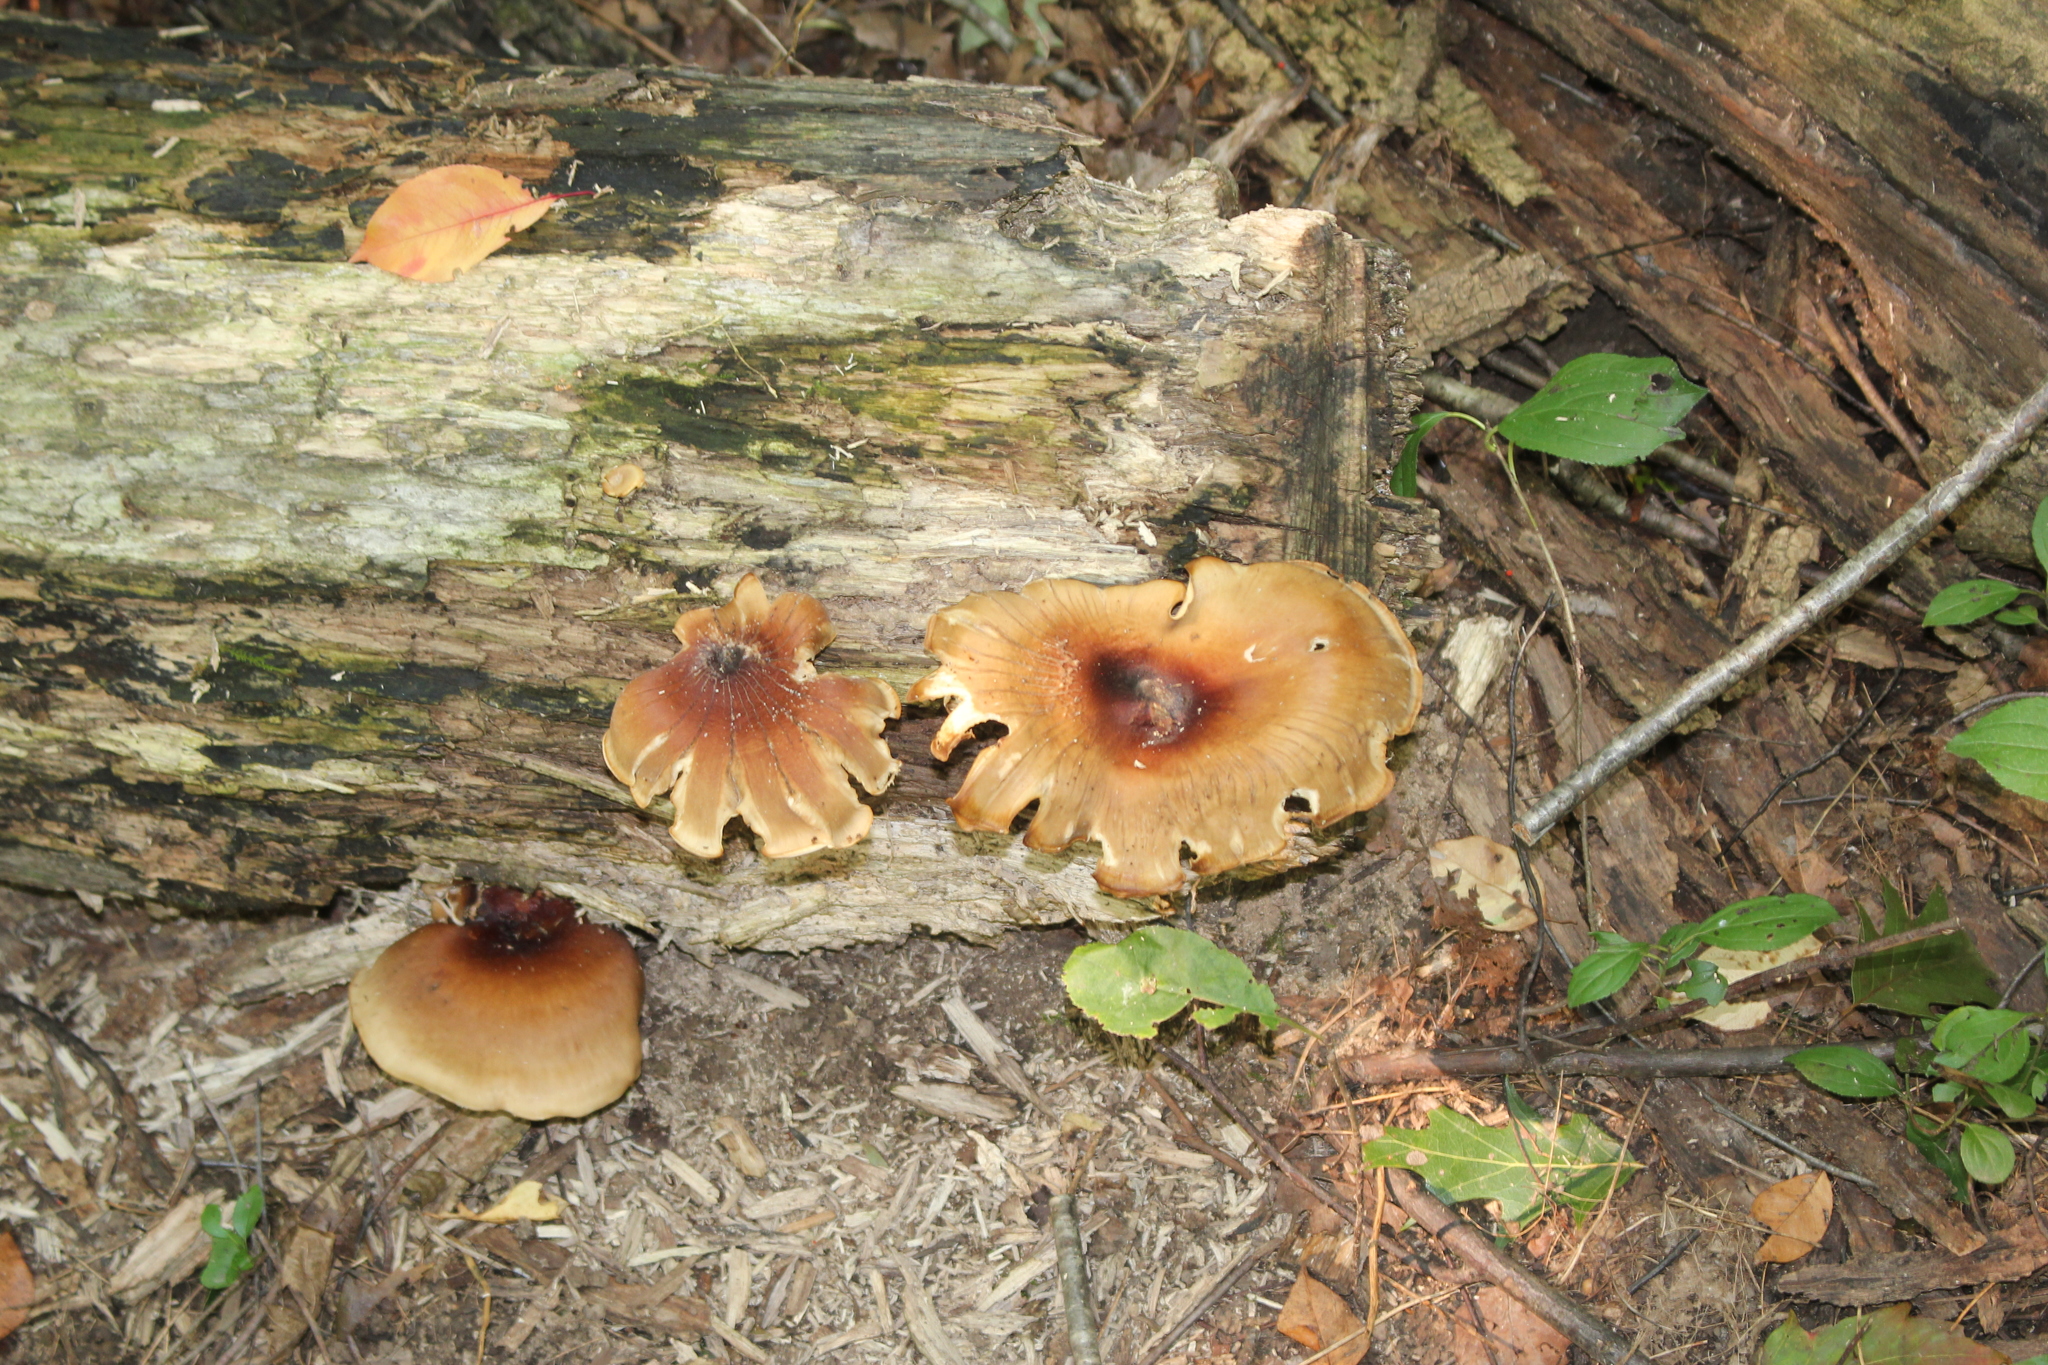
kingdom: Fungi
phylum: Basidiomycota
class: Agaricomycetes
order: Polyporales
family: Polyporaceae
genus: Picipes
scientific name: Picipes badius
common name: Bay polypore
